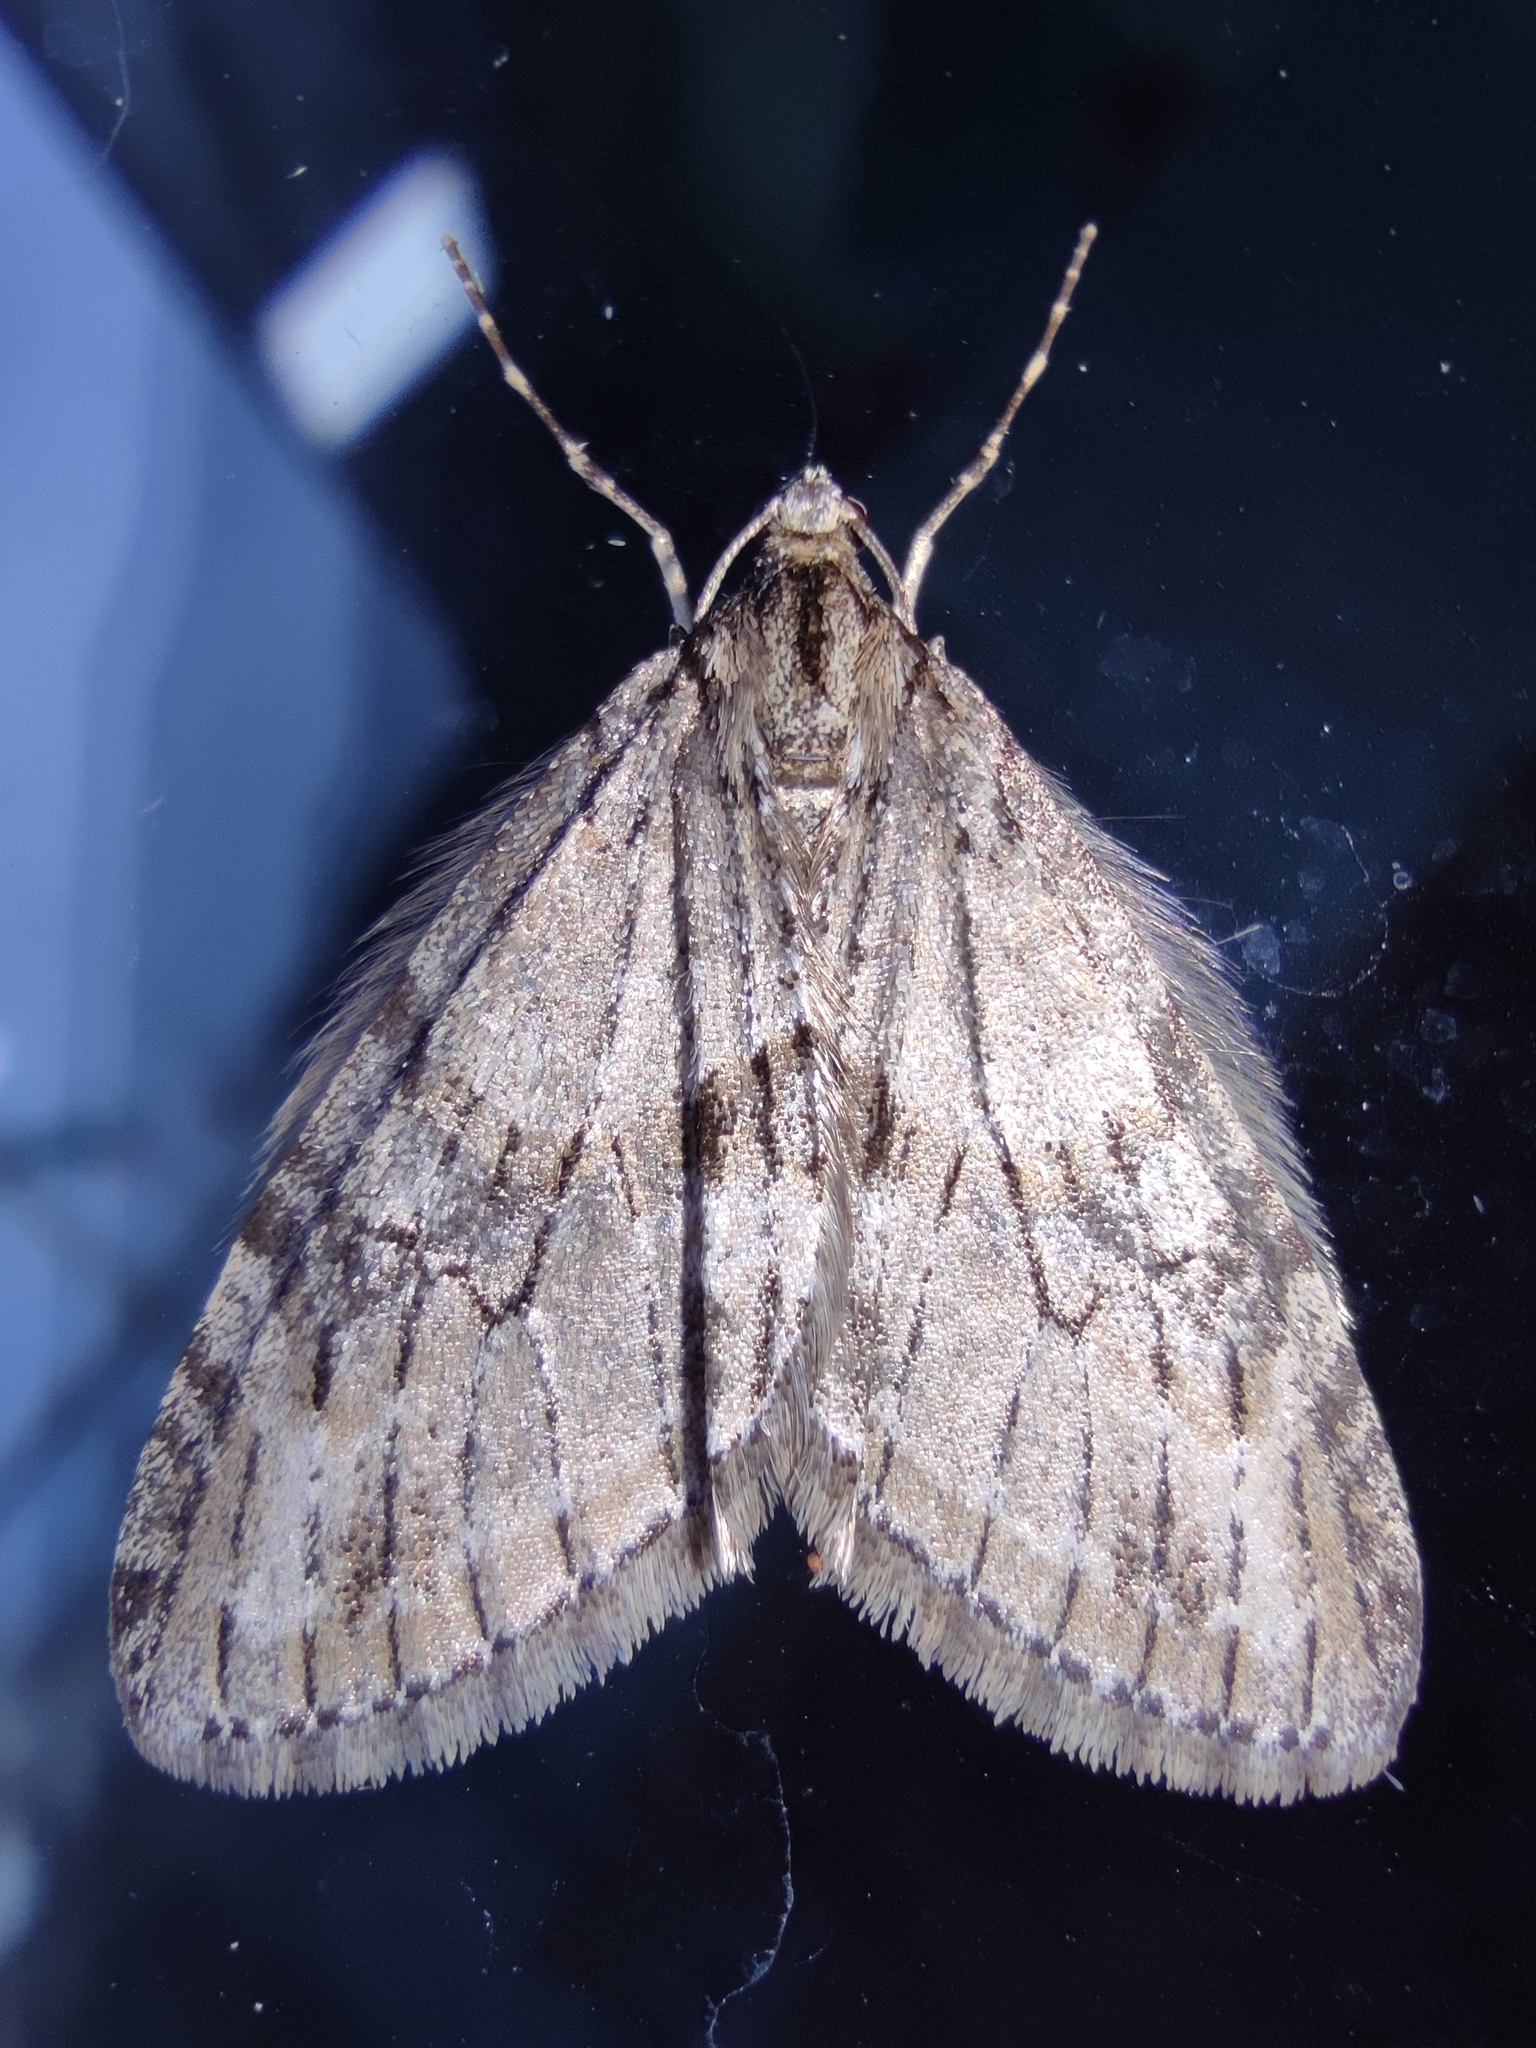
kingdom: Animalia
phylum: Arthropoda
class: Insecta
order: Lepidoptera
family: Geometridae
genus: Trichopteryx
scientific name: Trichopteryx polycommata
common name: Barred tooth-striped
